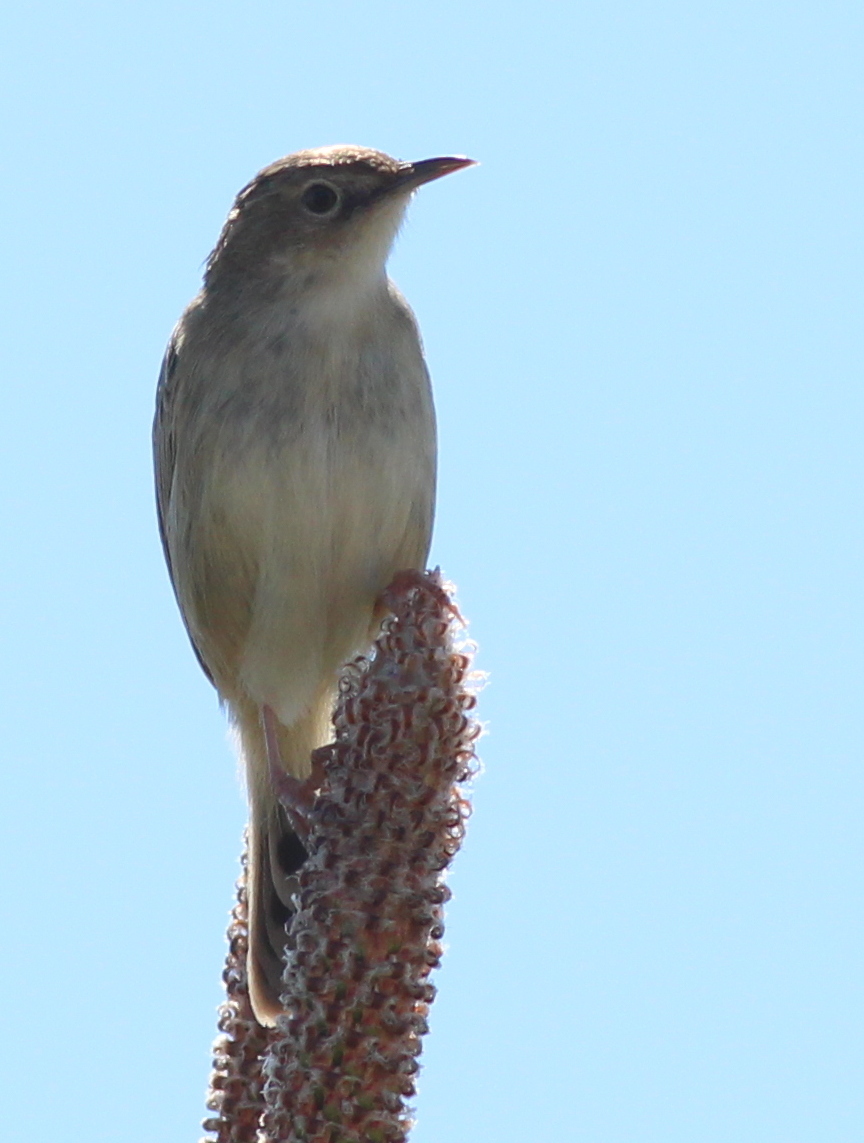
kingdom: Animalia
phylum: Chordata
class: Aves
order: Passeriformes
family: Cisticolidae
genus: Cisticola
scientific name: Cisticola juncidis
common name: Zitting cisticola
